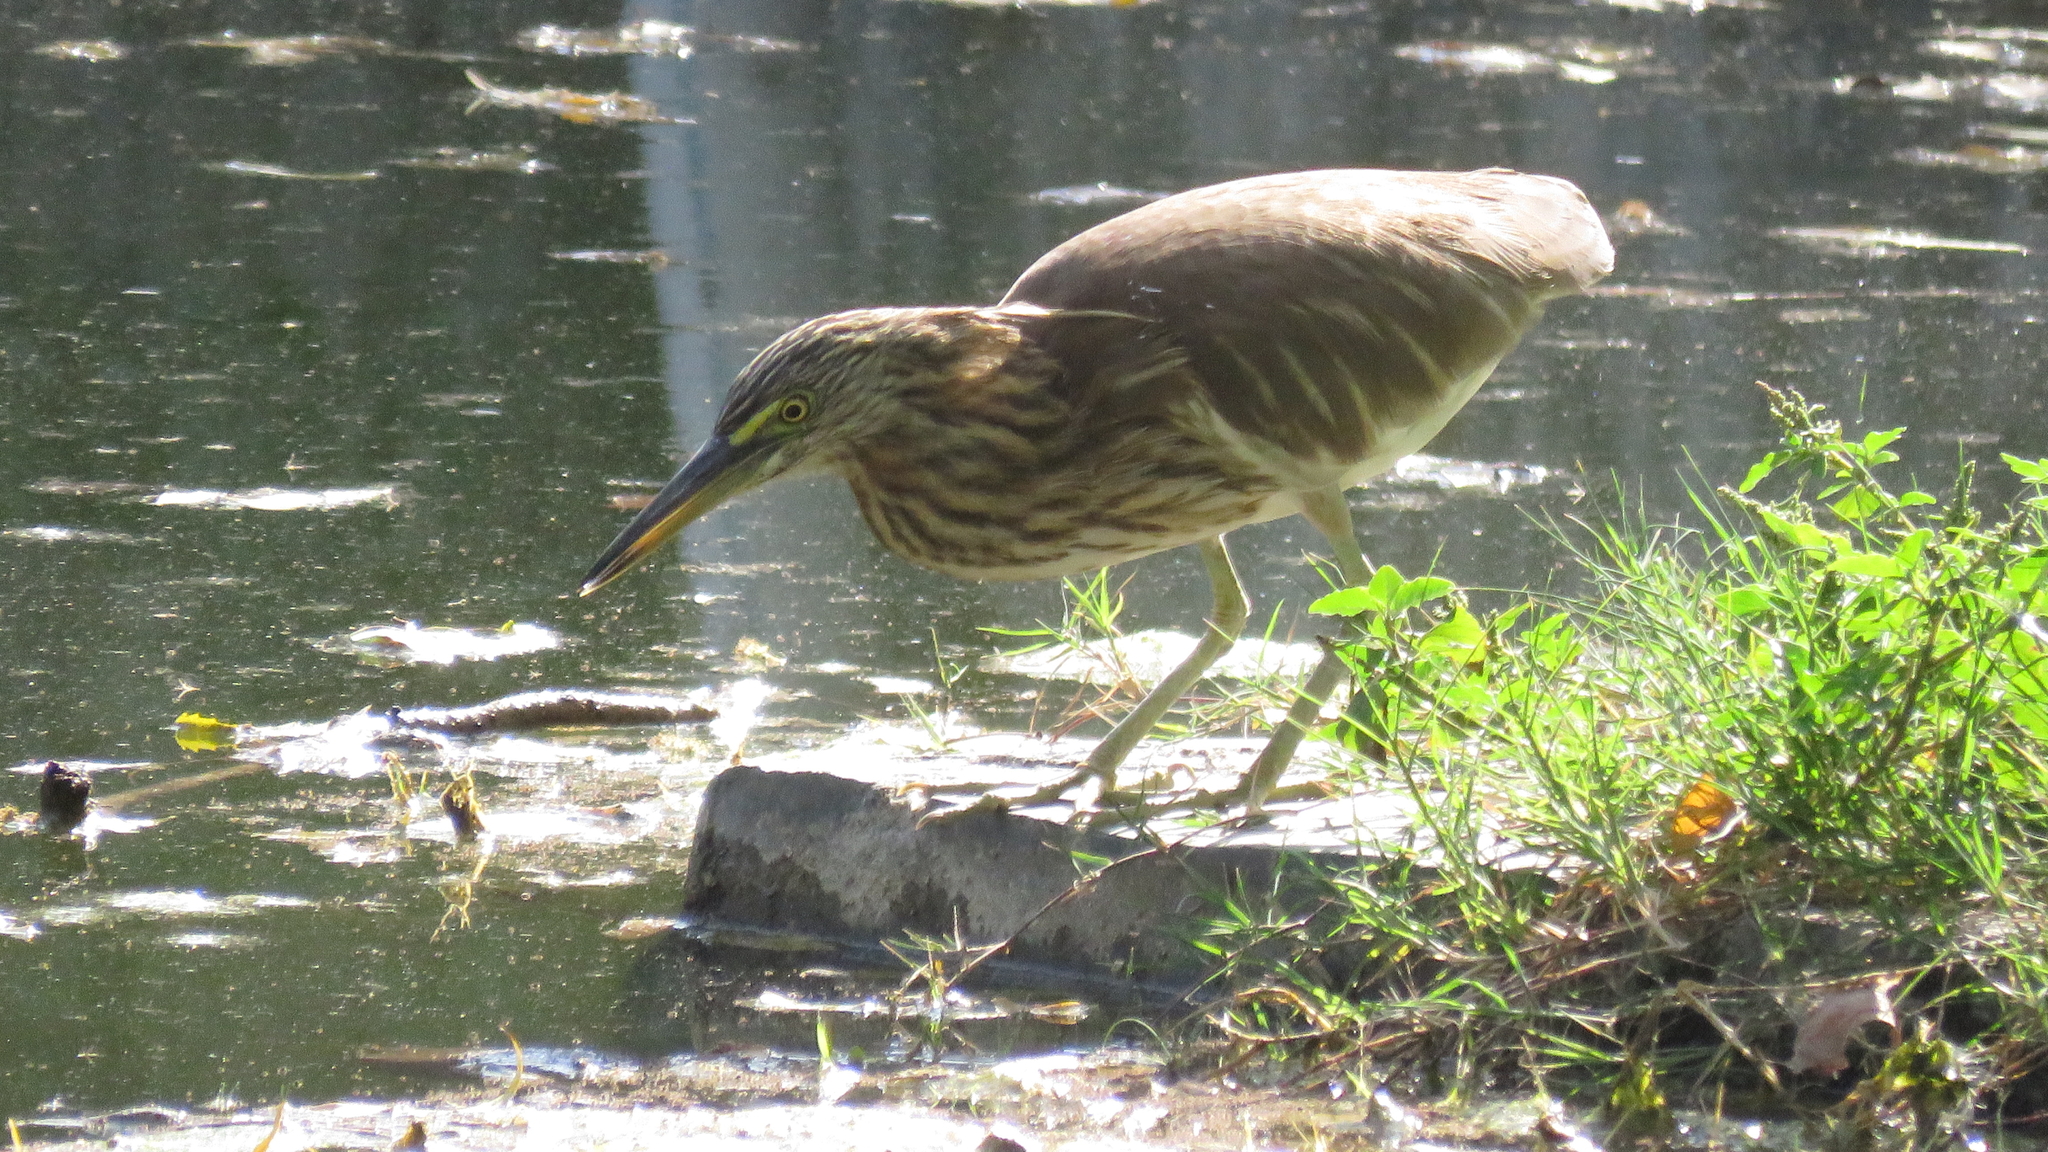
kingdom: Animalia
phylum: Chordata
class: Aves
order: Pelecaniformes
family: Ardeidae
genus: Ardeola
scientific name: Ardeola grayii
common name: Indian pond heron
